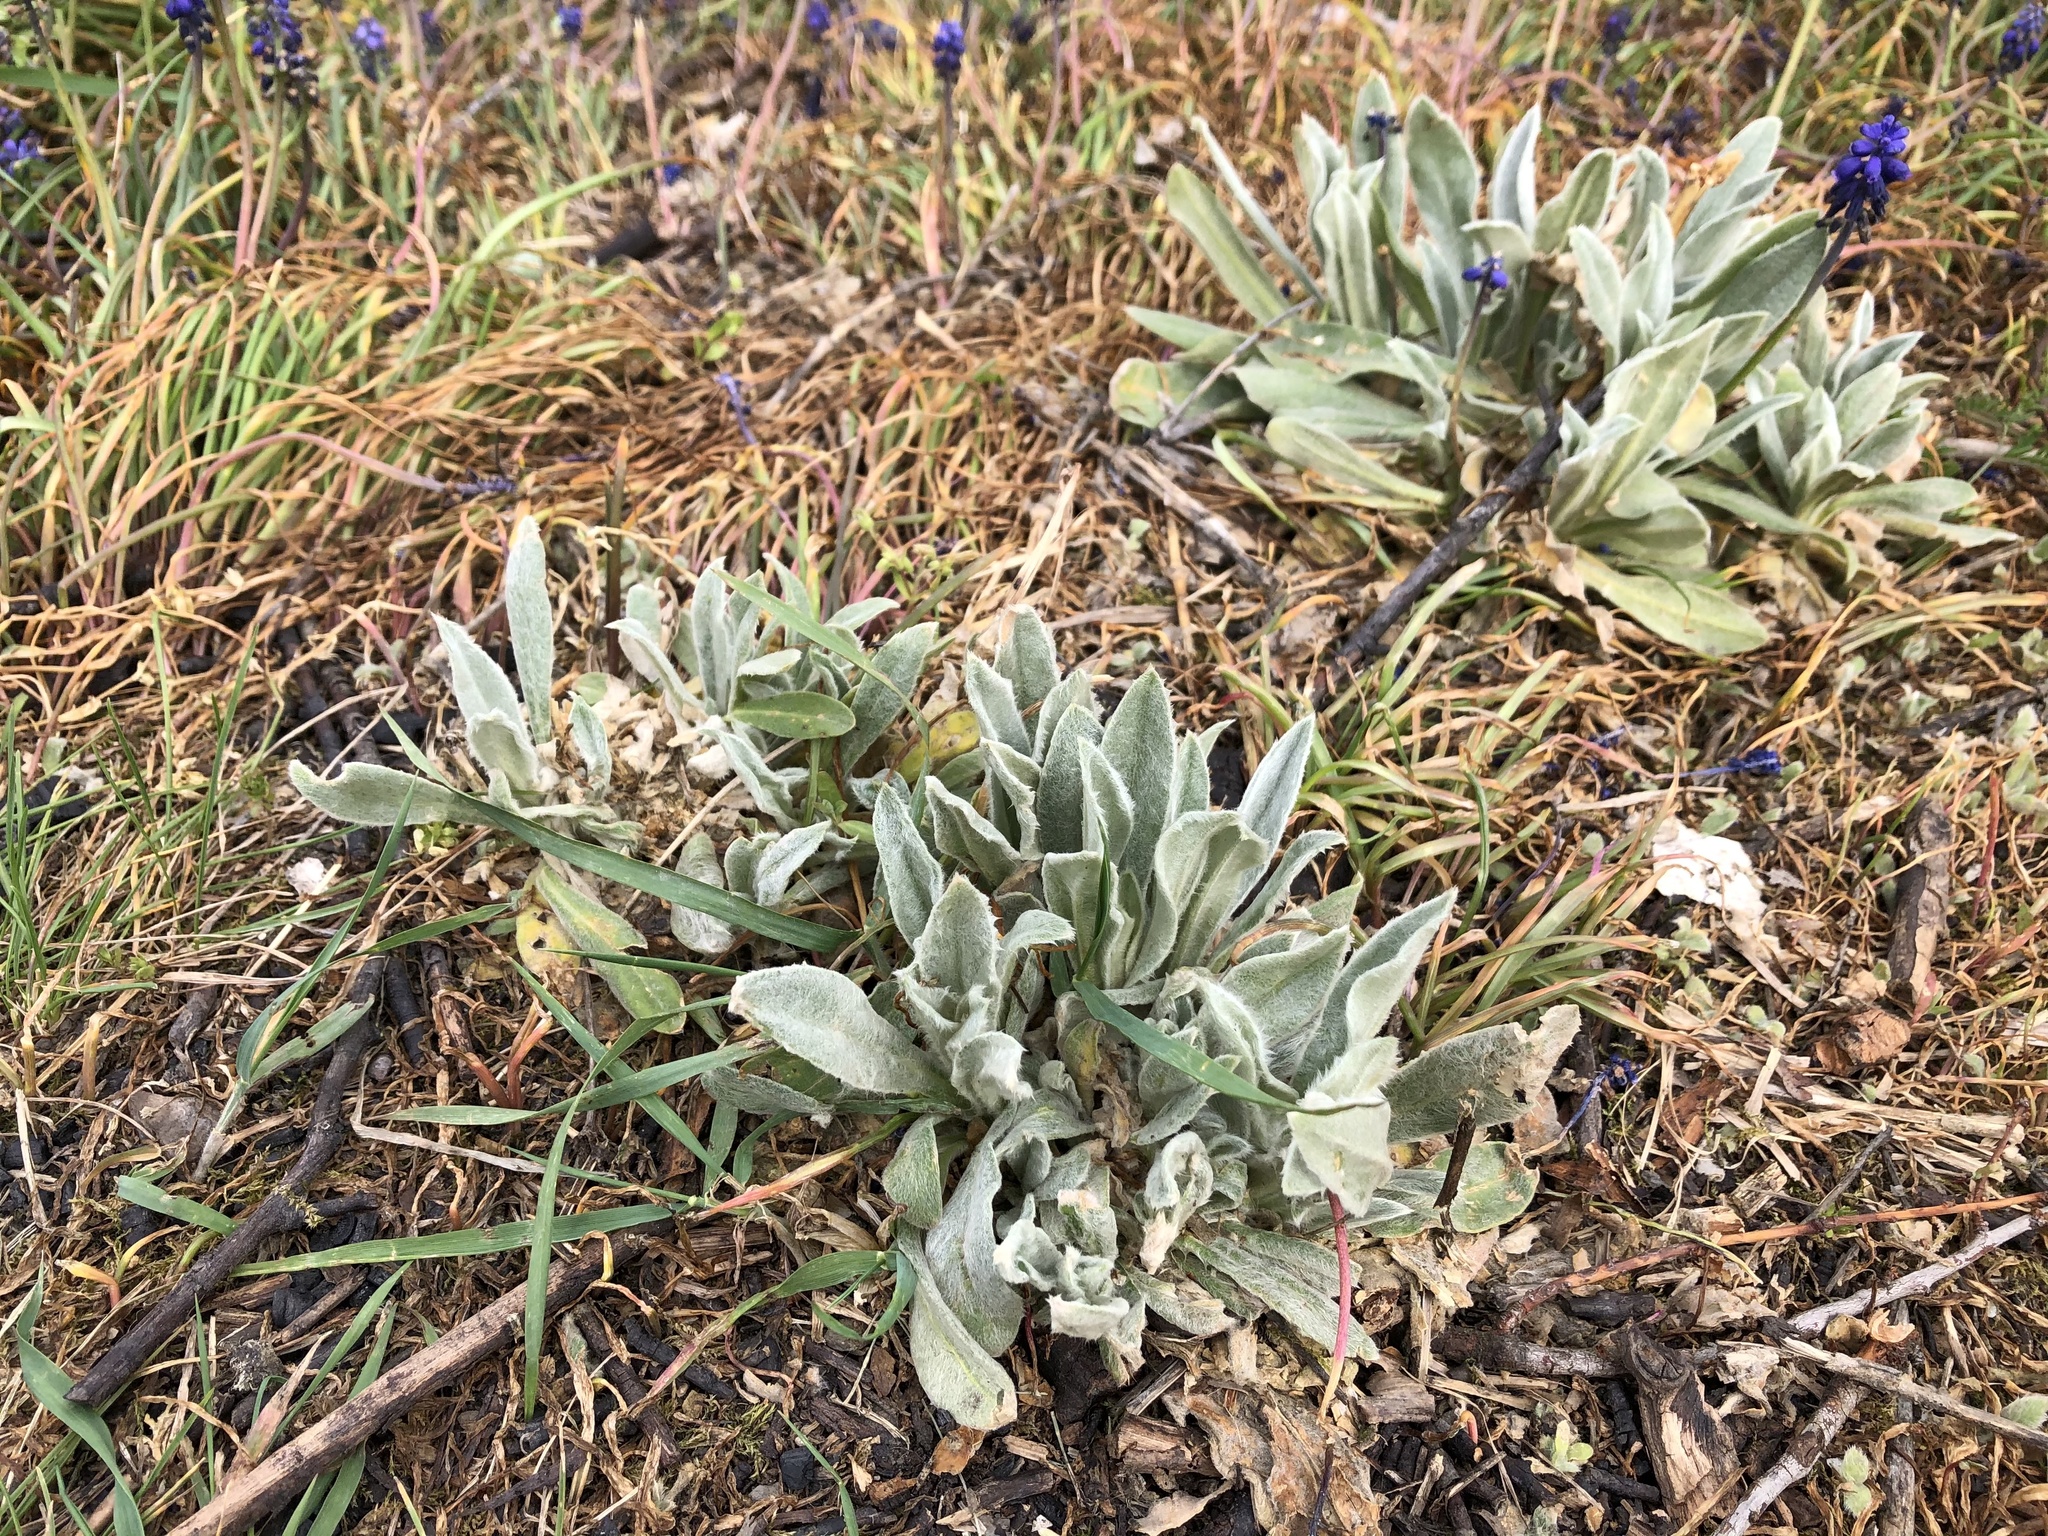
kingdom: Plantae
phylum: Tracheophyta
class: Magnoliopsida
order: Caryophyllales
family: Caryophyllaceae
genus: Silene
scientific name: Silene coronaria
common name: Rose campion
